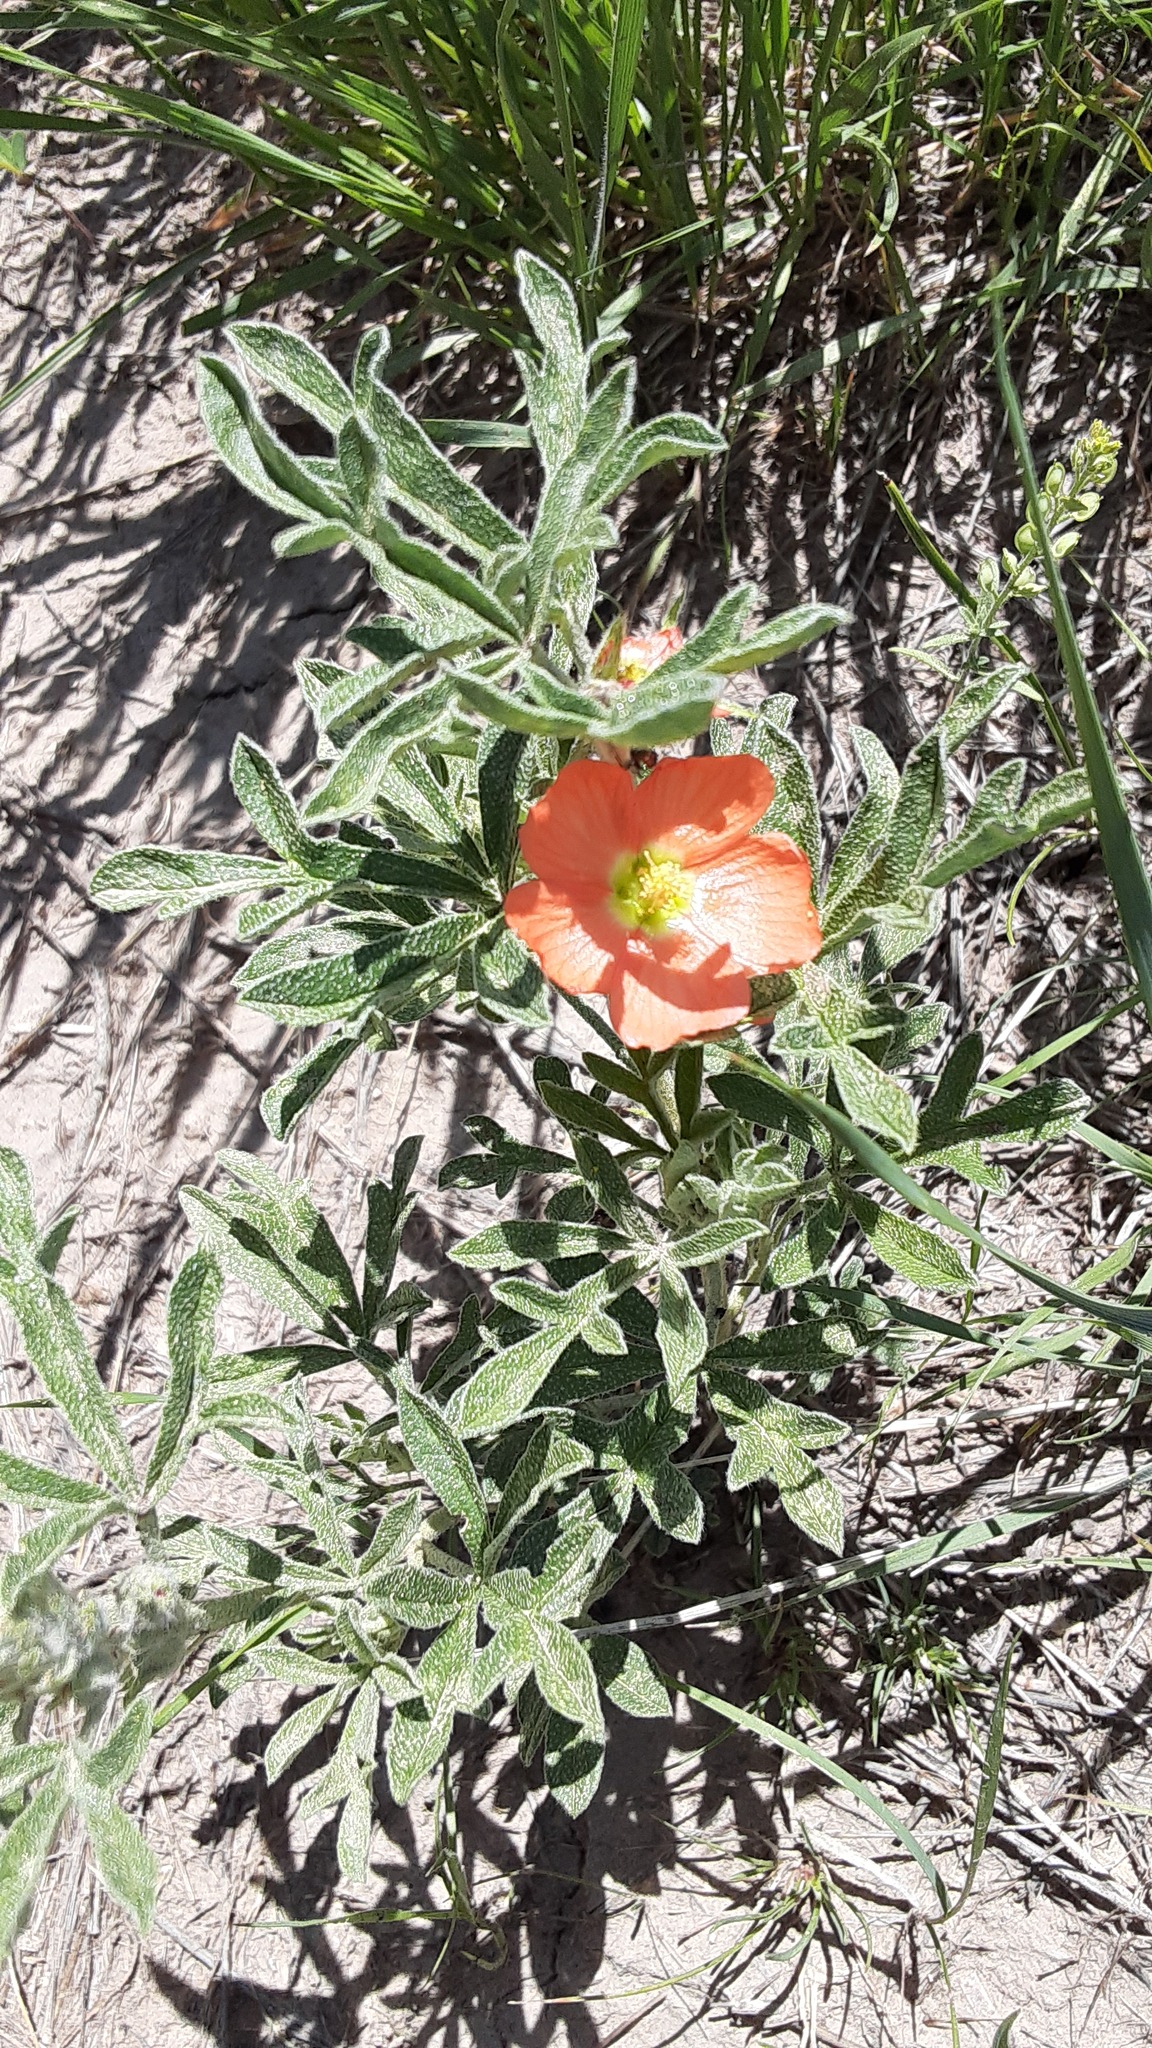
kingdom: Plantae
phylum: Tracheophyta
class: Magnoliopsida
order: Malvales
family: Malvaceae
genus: Sphaeralcea
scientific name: Sphaeralcea coccinea
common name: Moss-rose
